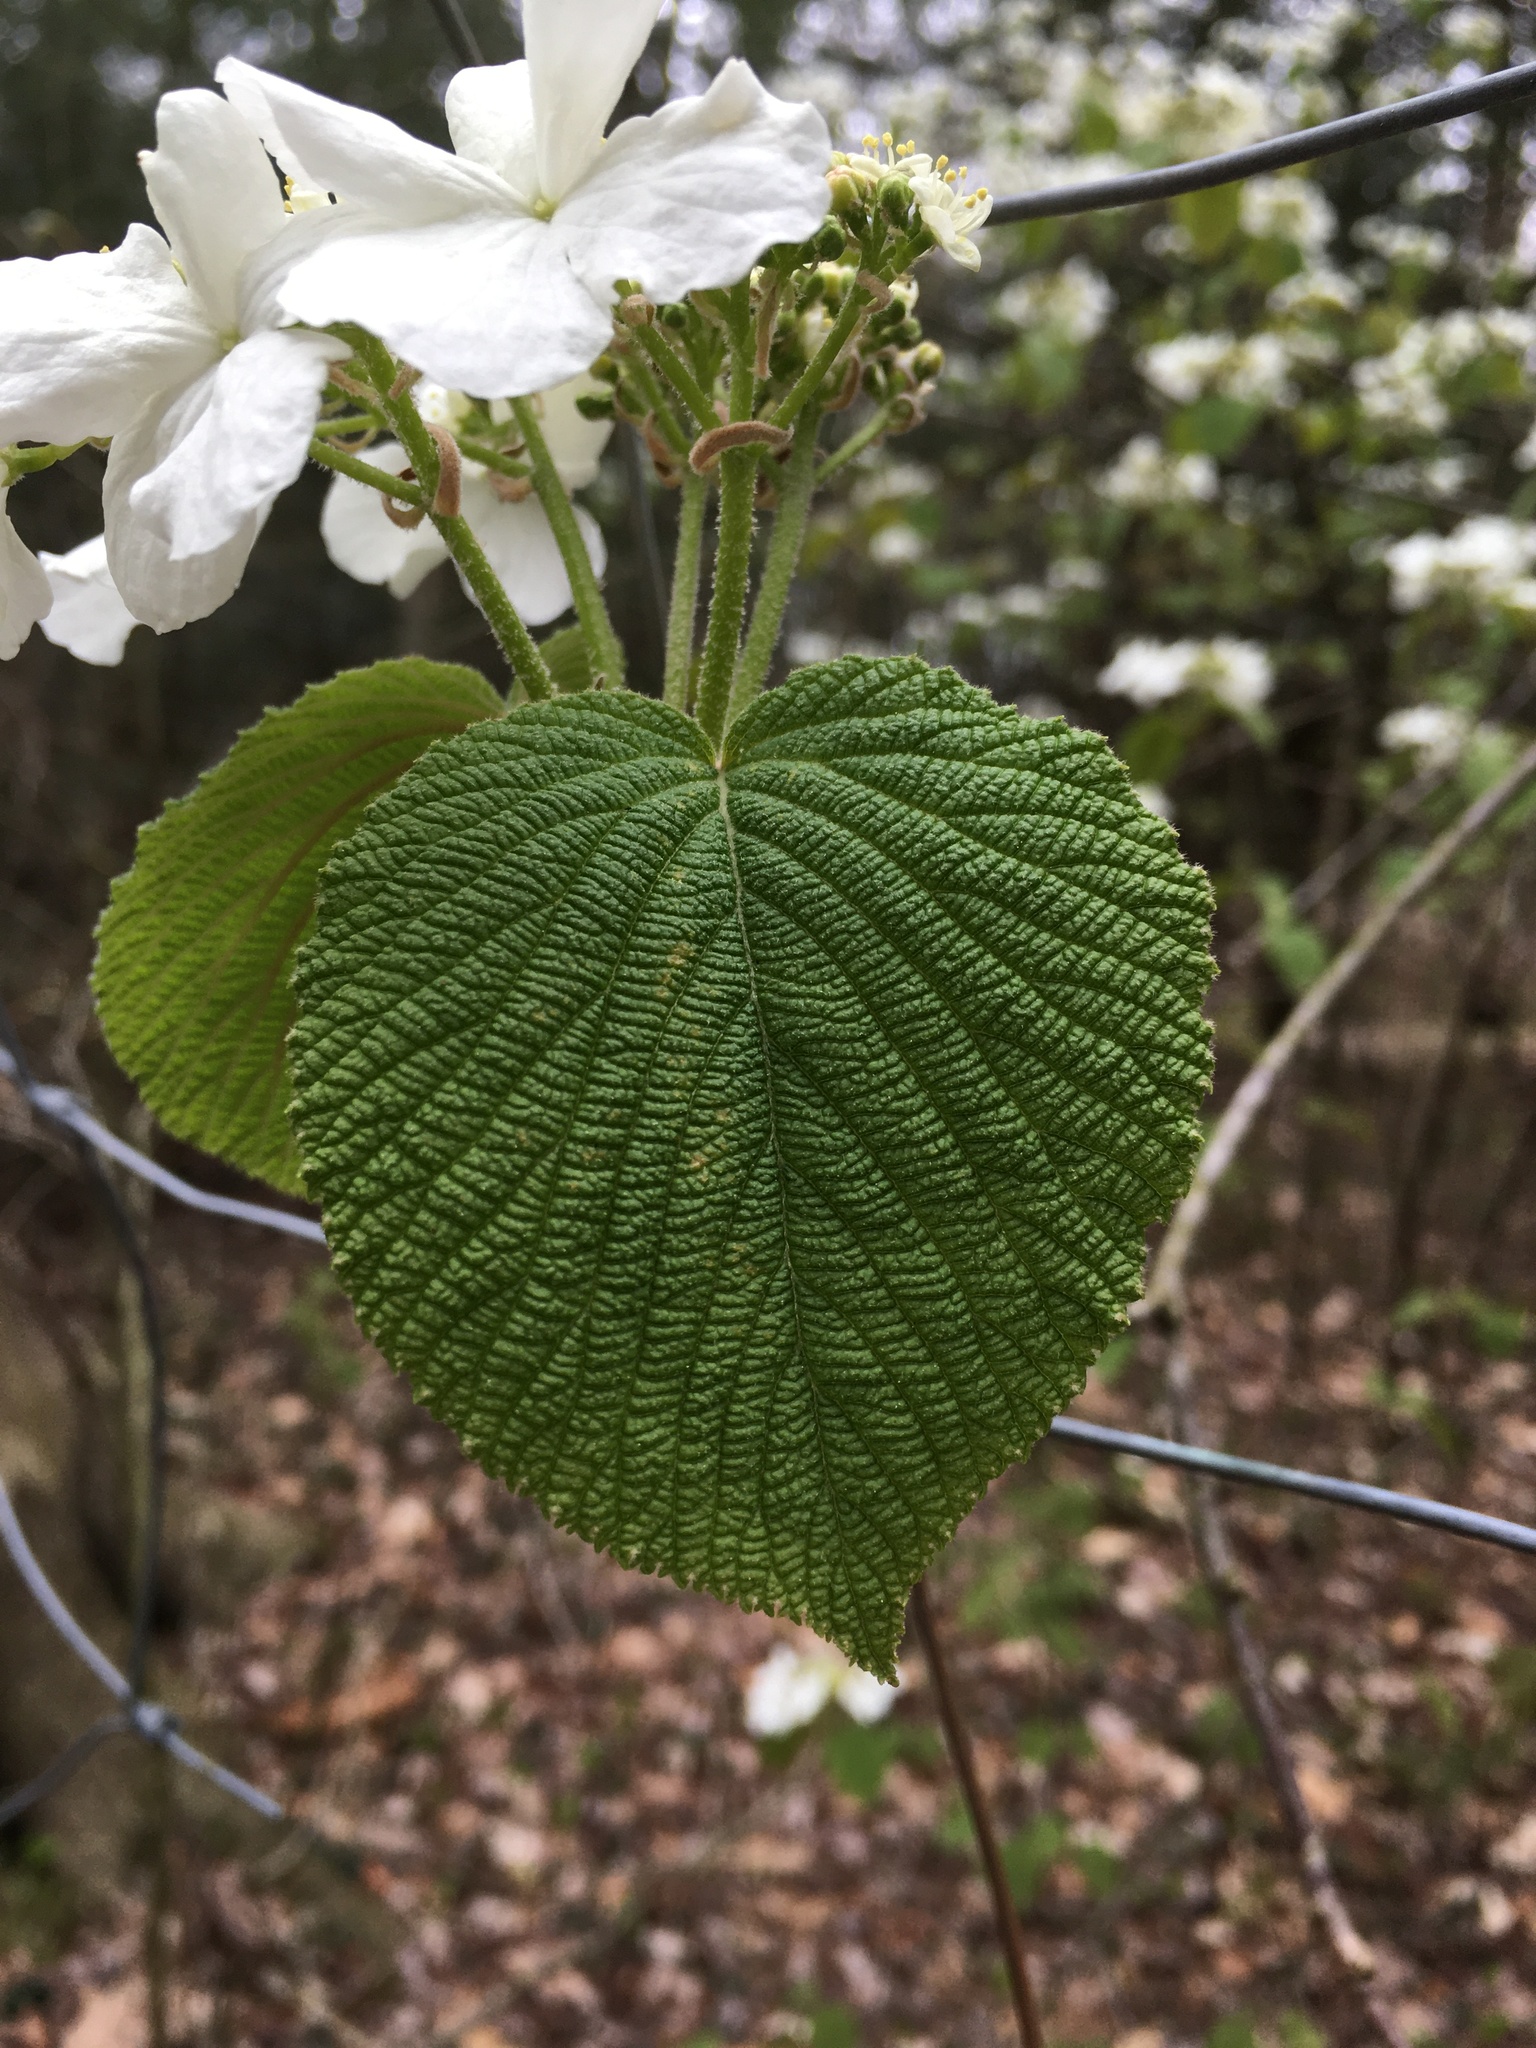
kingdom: Plantae
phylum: Tracheophyta
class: Magnoliopsida
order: Dipsacales
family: Viburnaceae
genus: Viburnum
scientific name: Viburnum lantanoides
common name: Hobblebush
